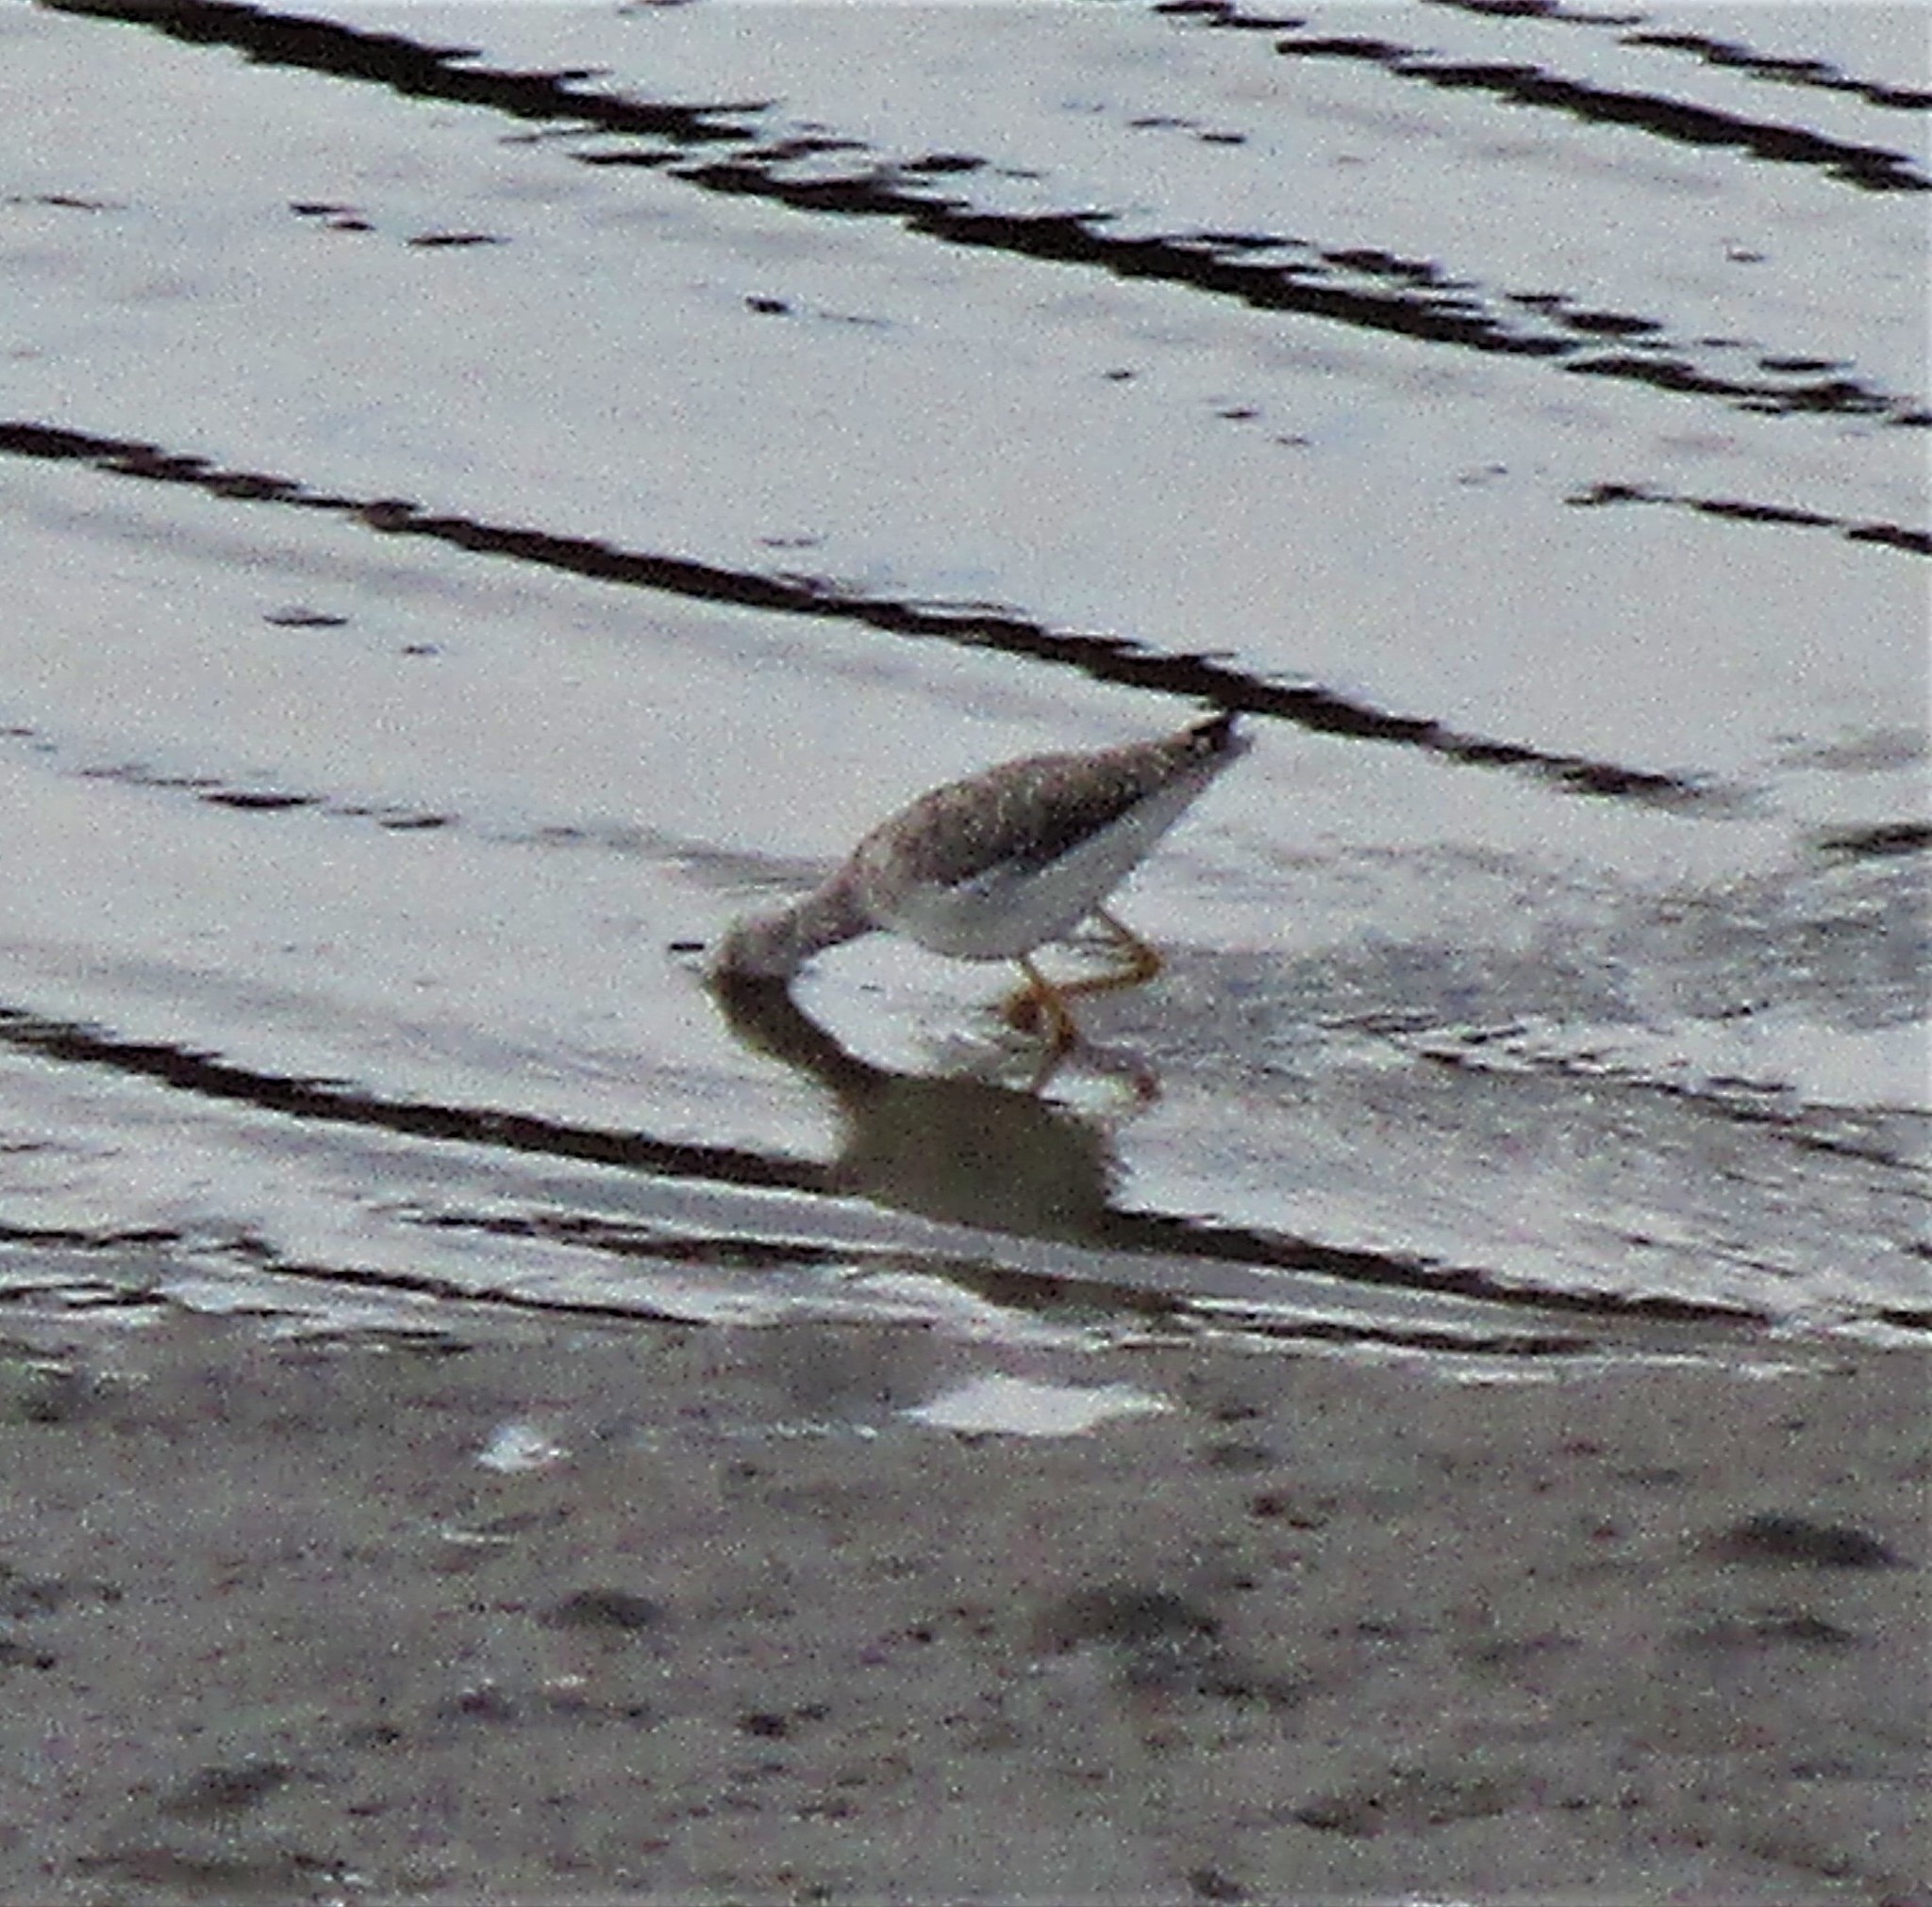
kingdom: Animalia
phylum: Chordata
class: Aves
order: Charadriiformes
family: Scolopacidae
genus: Tringa
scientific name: Tringa melanoleuca
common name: Greater yellowlegs
